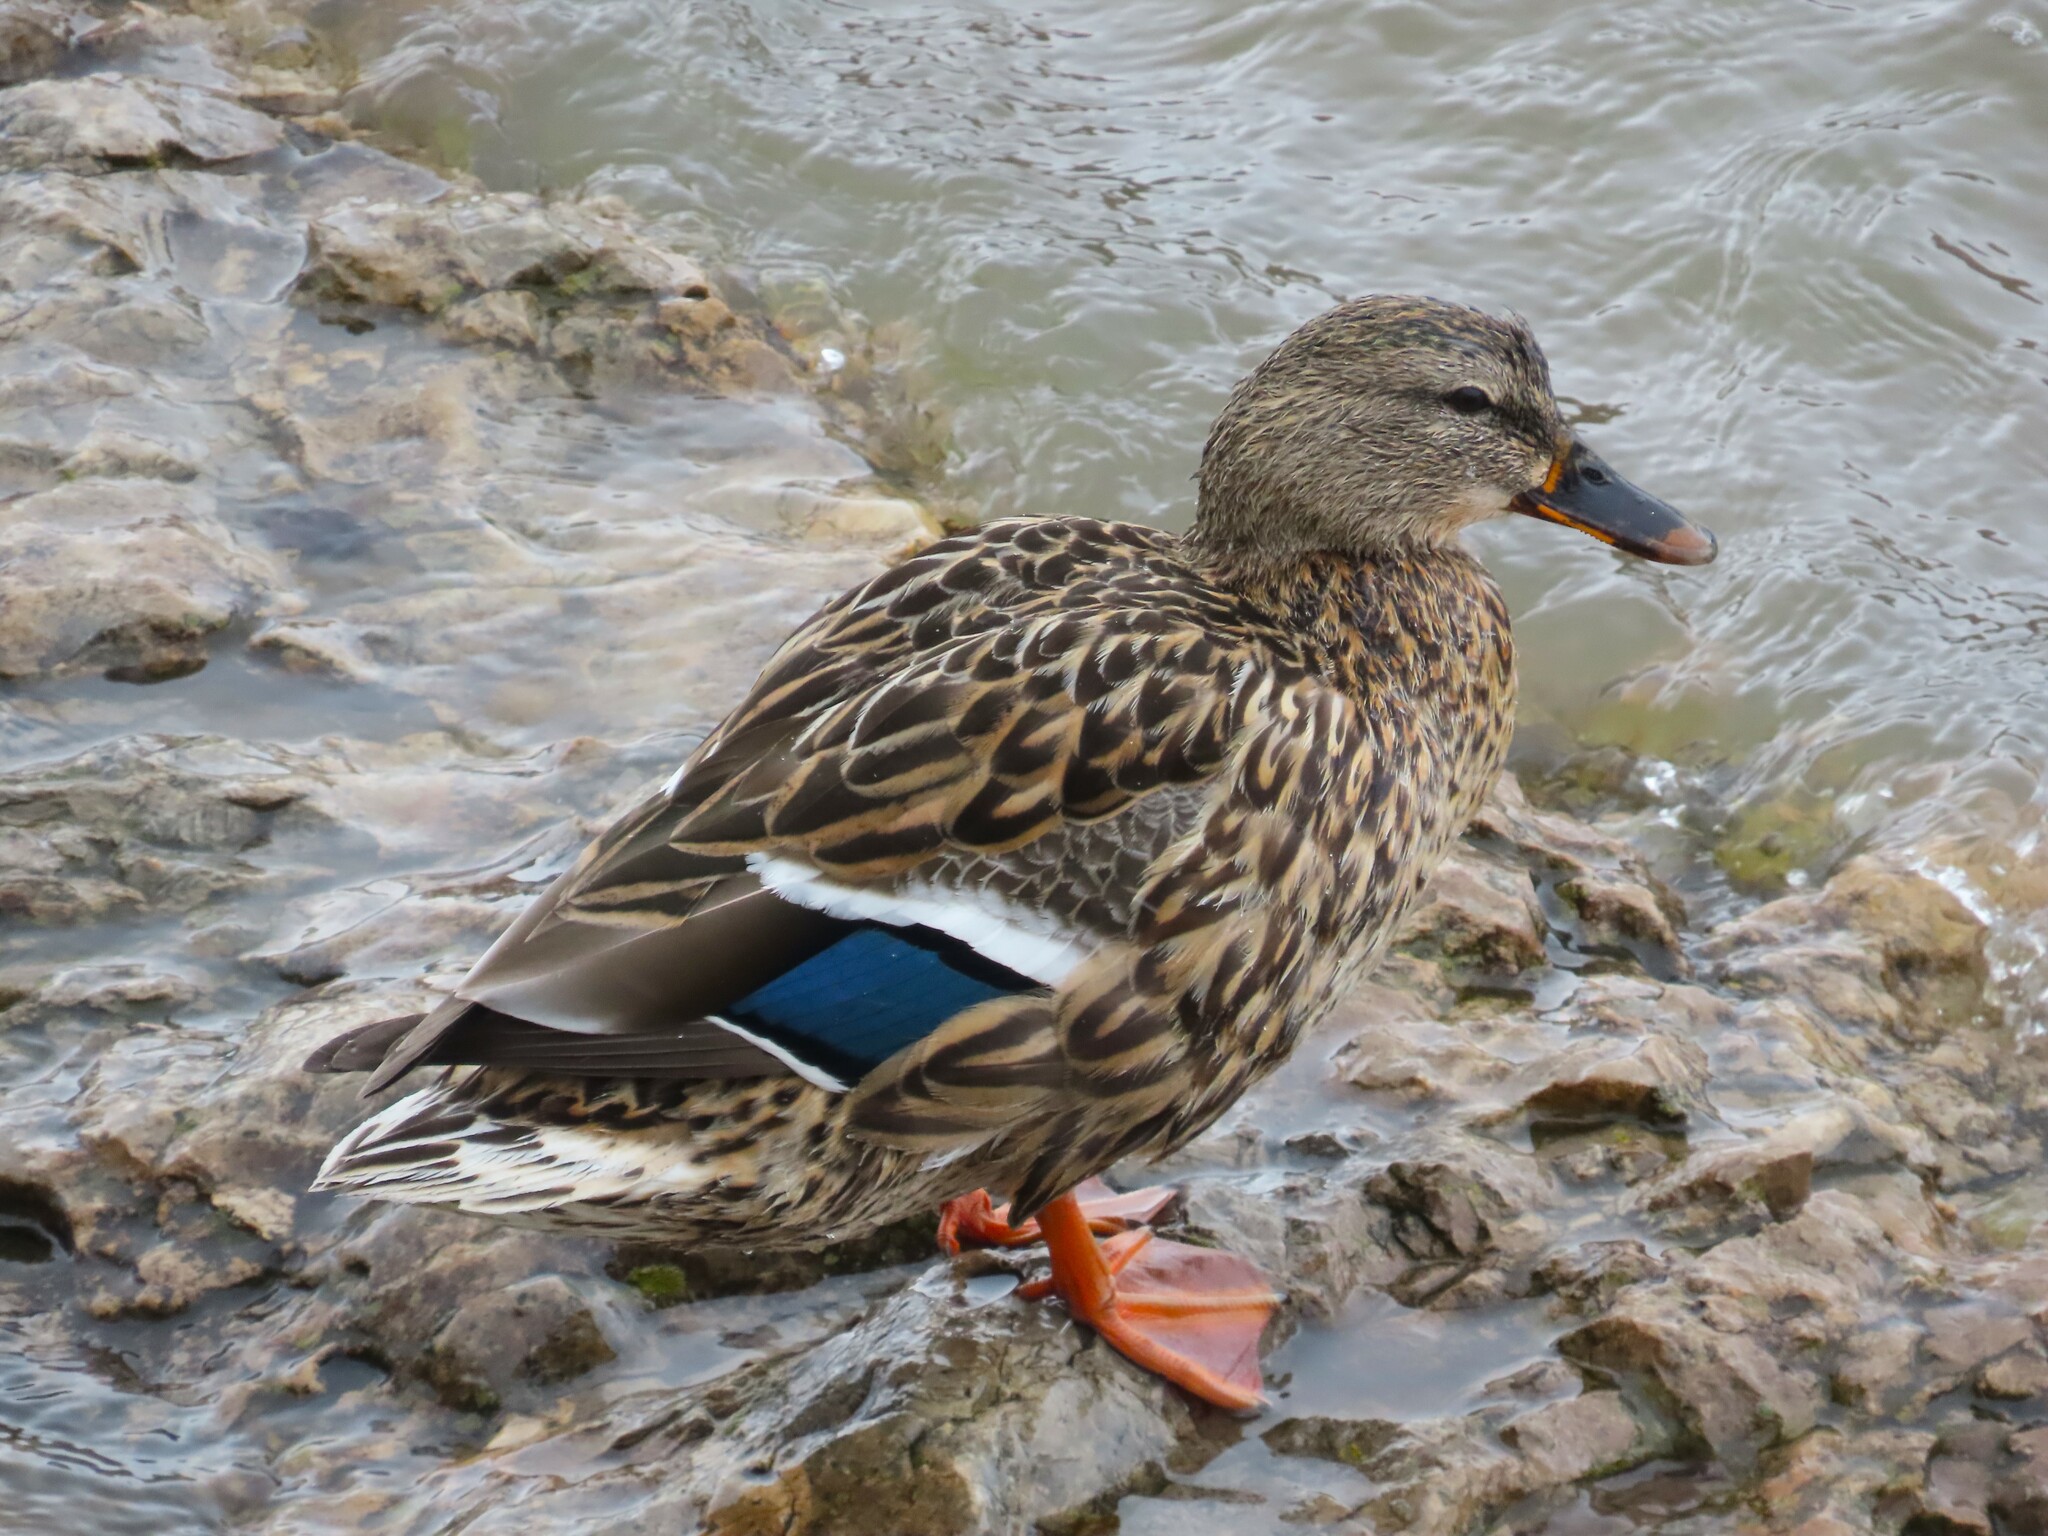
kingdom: Animalia
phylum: Chordata
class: Aves
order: Anseriformes
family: Anatidae
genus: Anas
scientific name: Anas platyrhynchos
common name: Mallard
